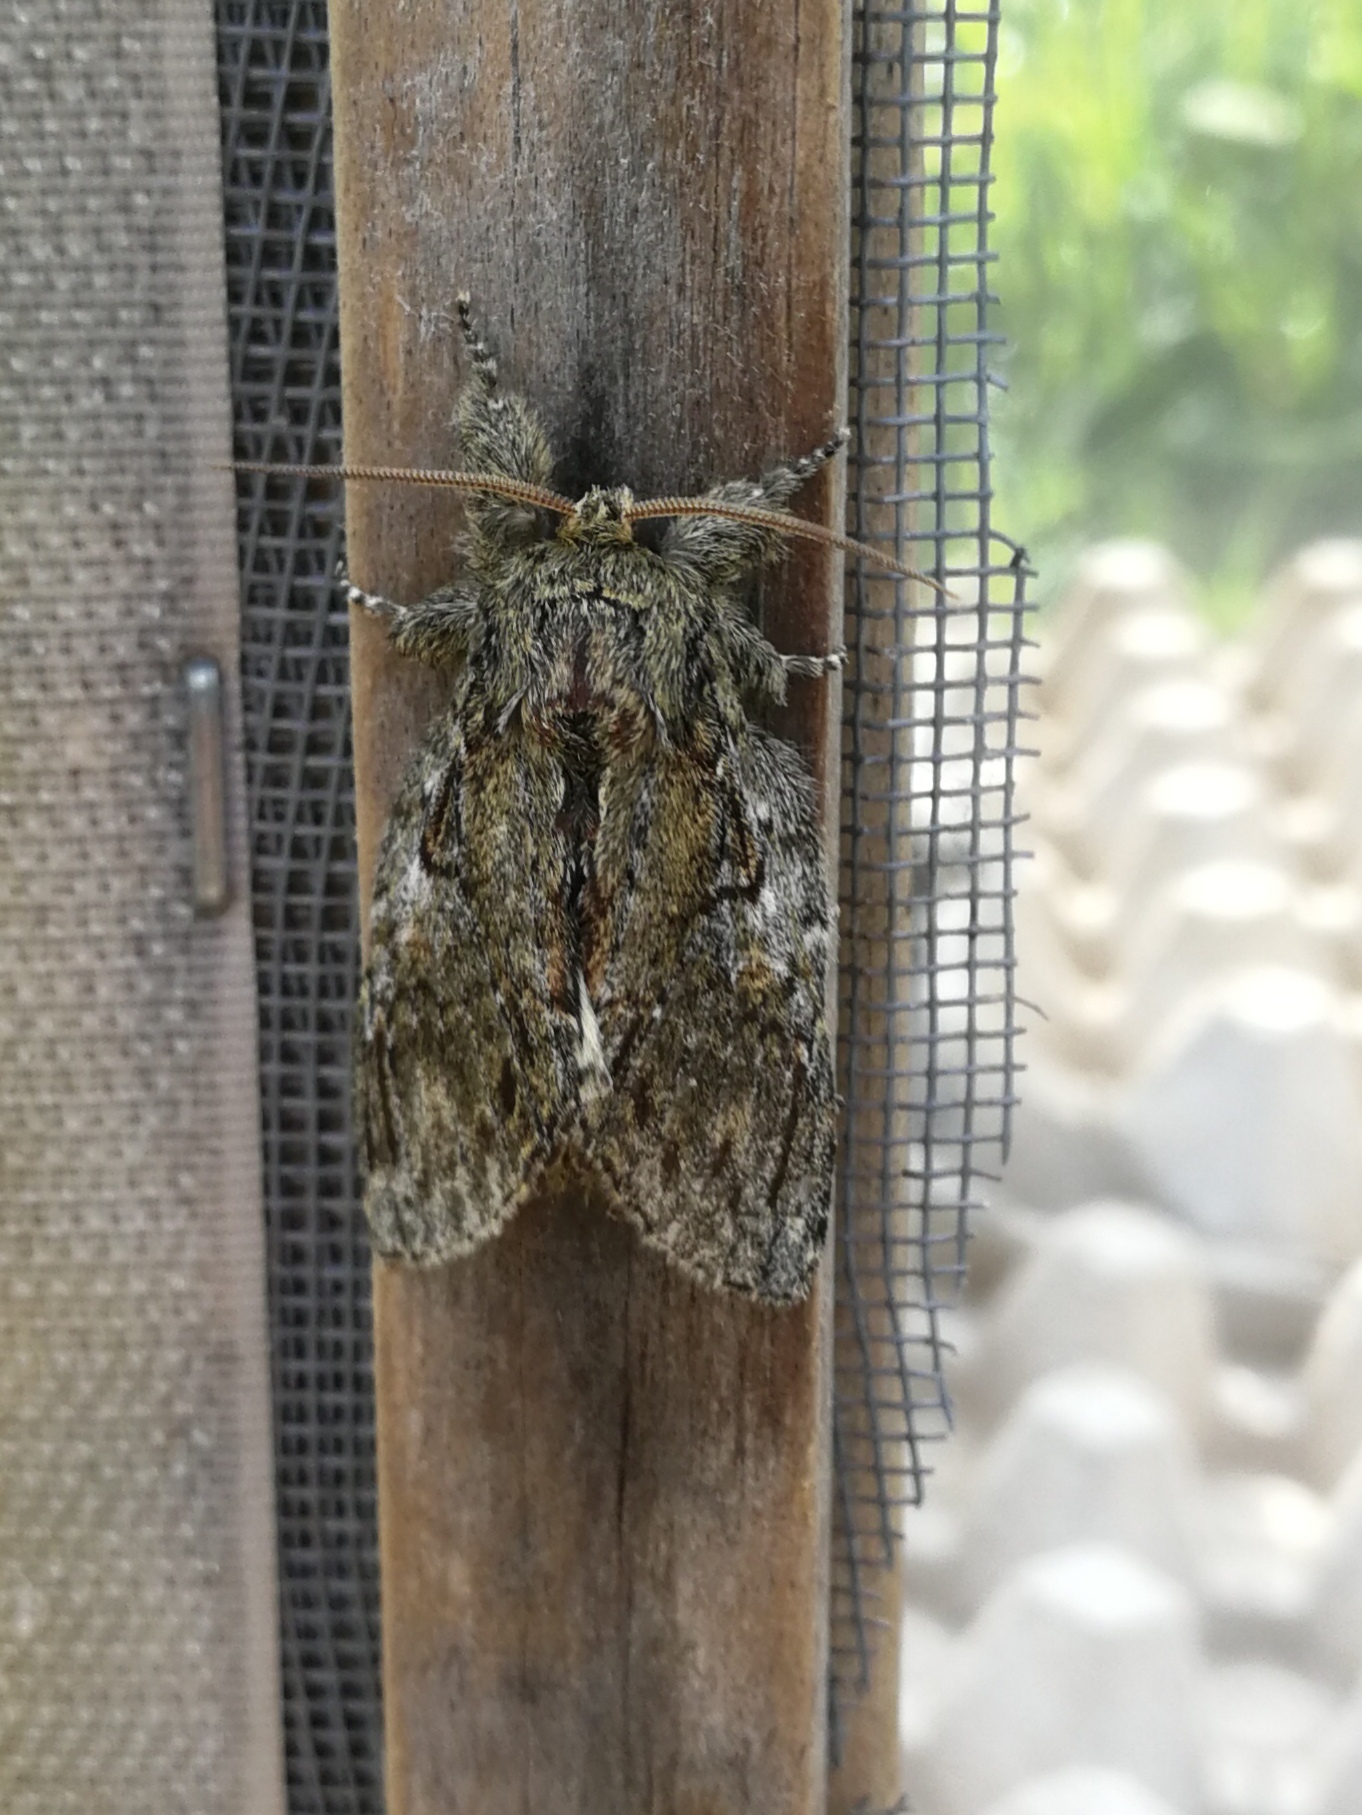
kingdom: Animalia
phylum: Arthropoda
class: Insecta
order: Lepidoptera
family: Notodontidae
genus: Peridea
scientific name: Peridea anceps
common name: Great prominent
